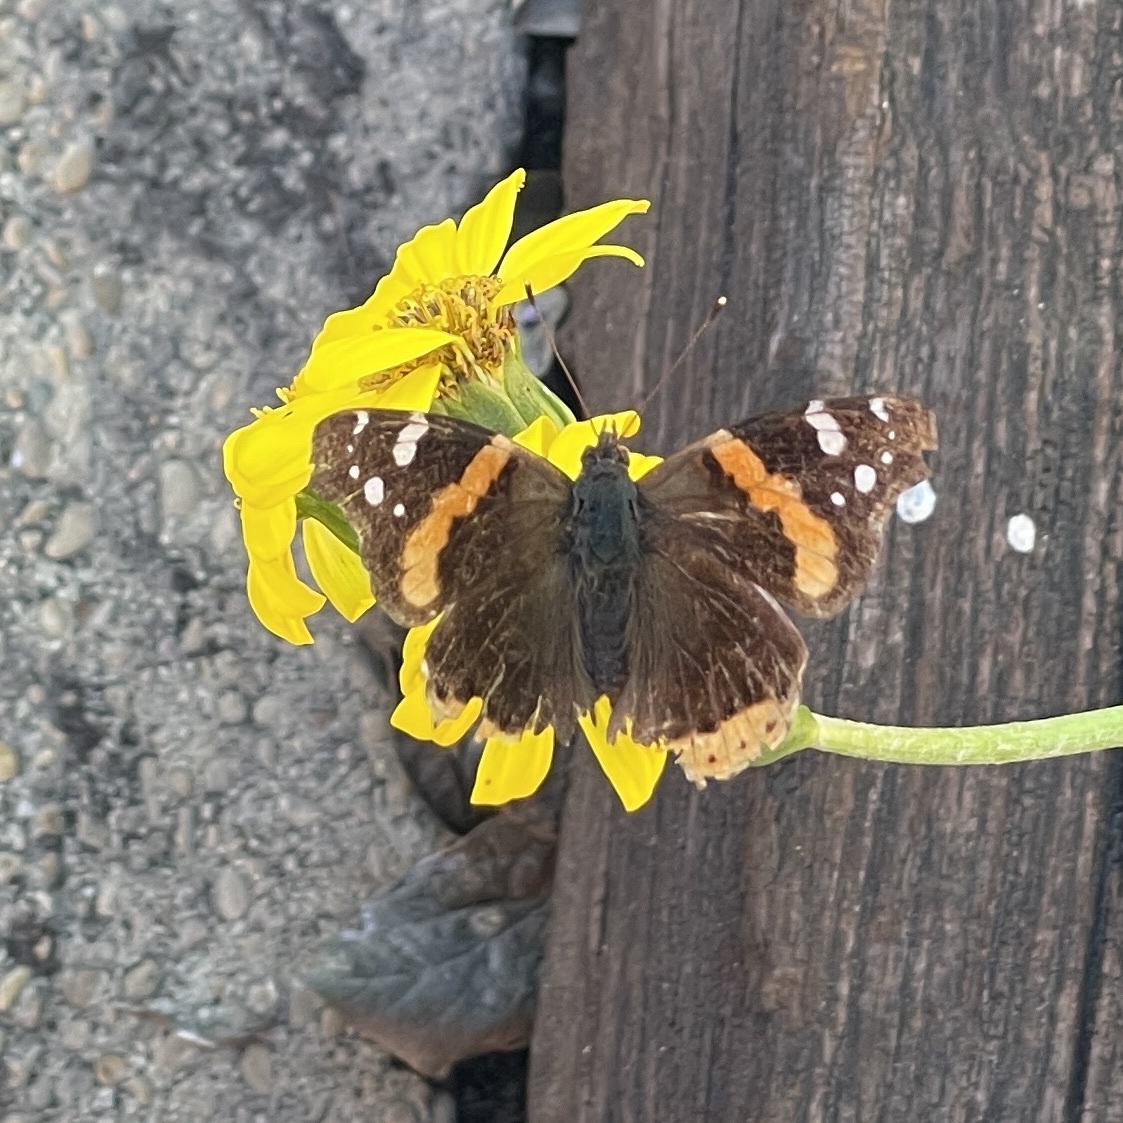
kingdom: Animalia
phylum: Arthropoda
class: Insecta
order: Lepidoptera
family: Nymphalidae
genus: Vanessa
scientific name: Vanessa atalanta
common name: Red admiral
